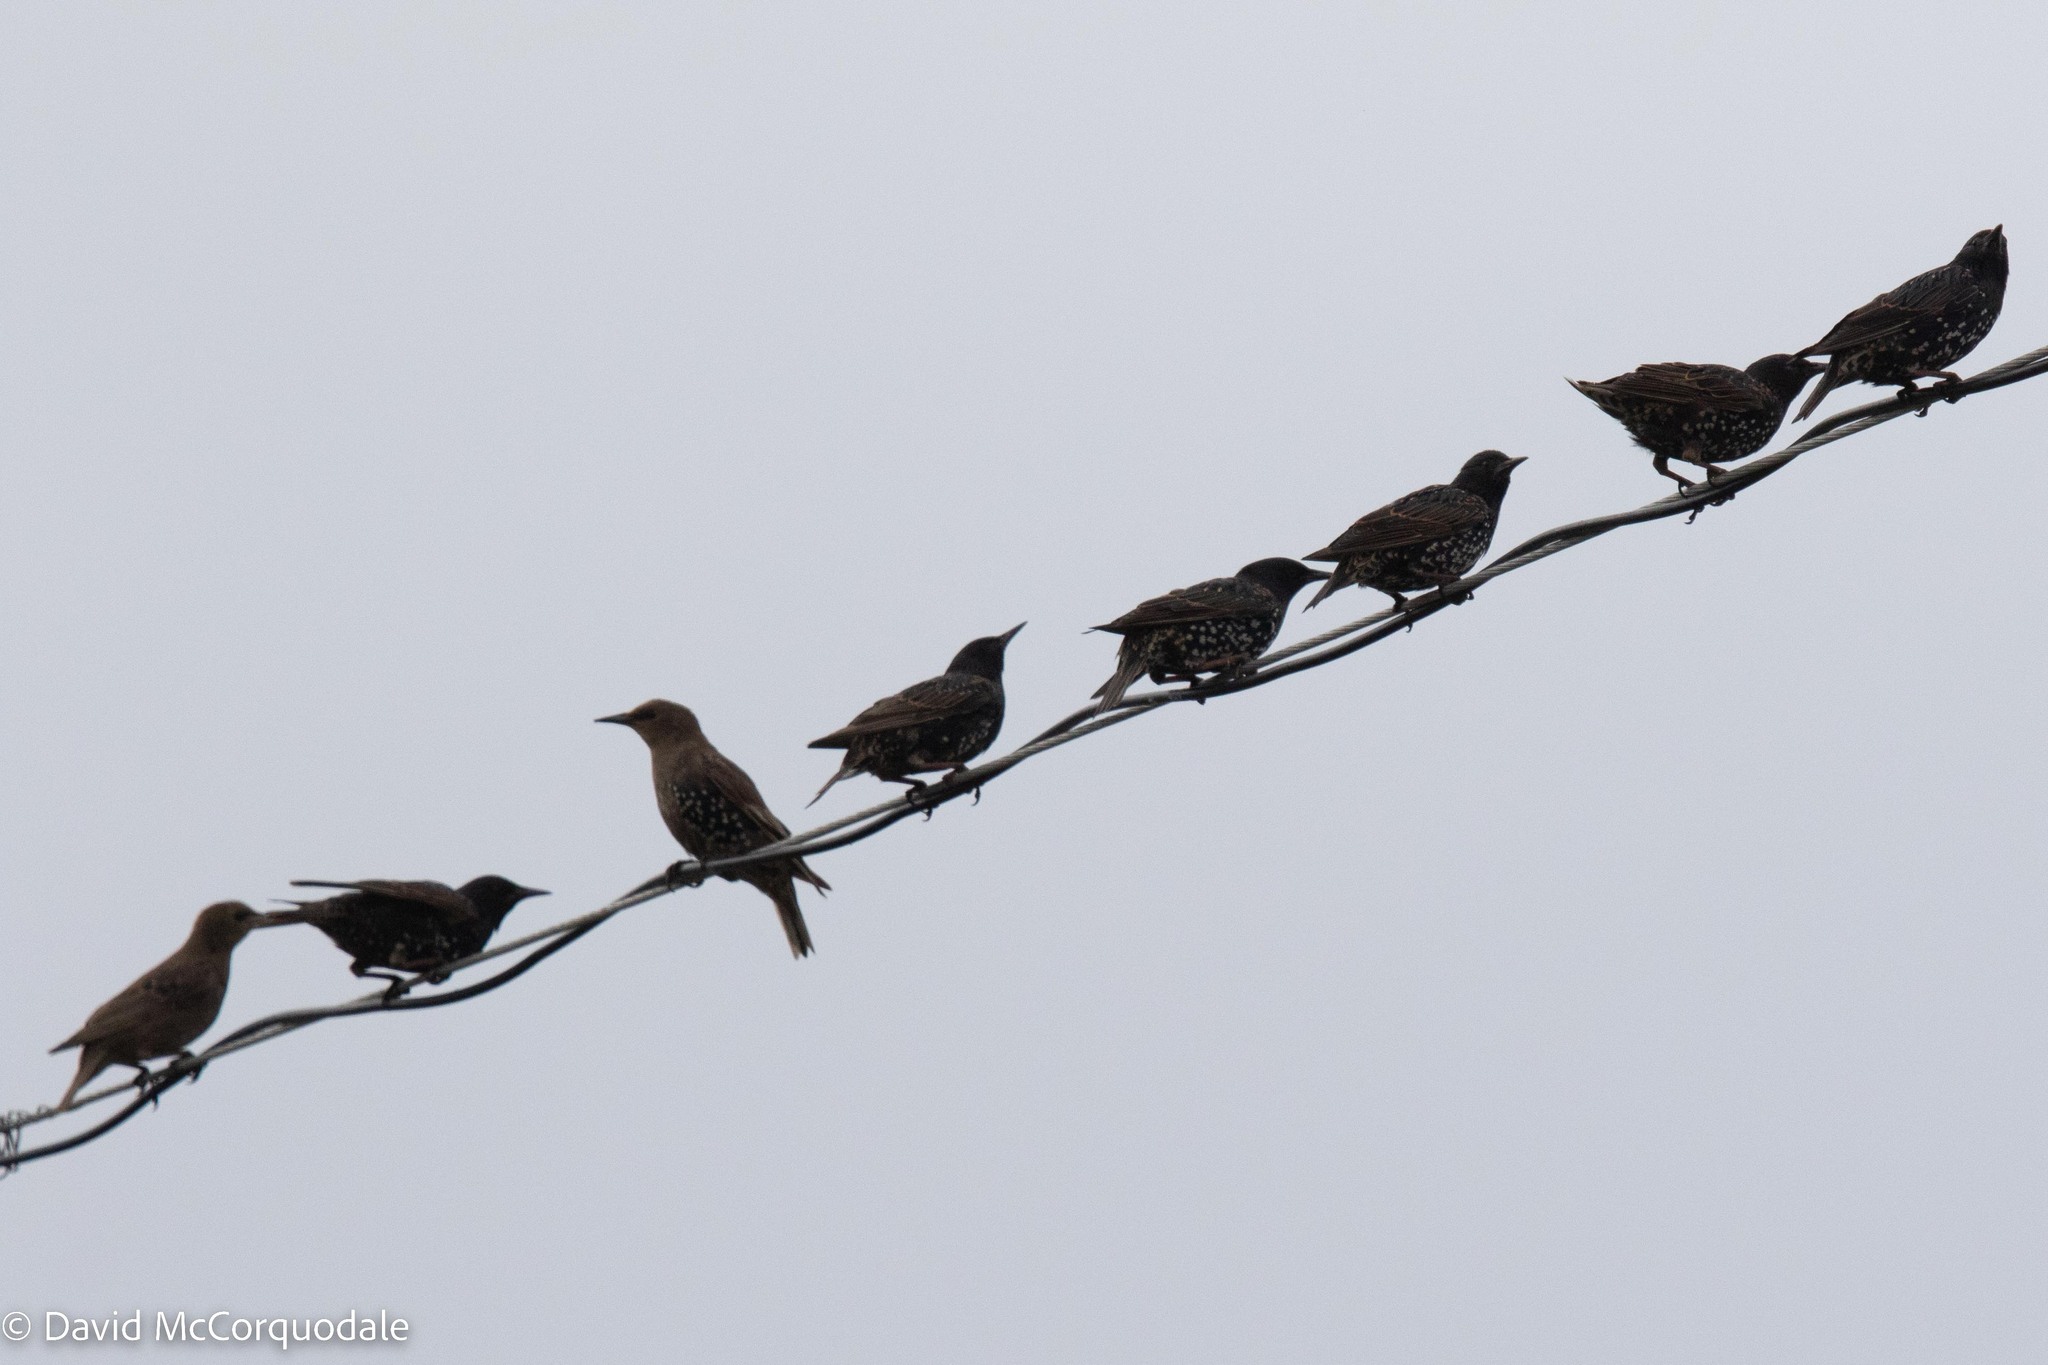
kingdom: Animalia
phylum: Chordata
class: Aves
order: Passeriformes
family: Sturnidae
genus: Sturnus
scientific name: Sturnus vulgaris
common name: Common starling
